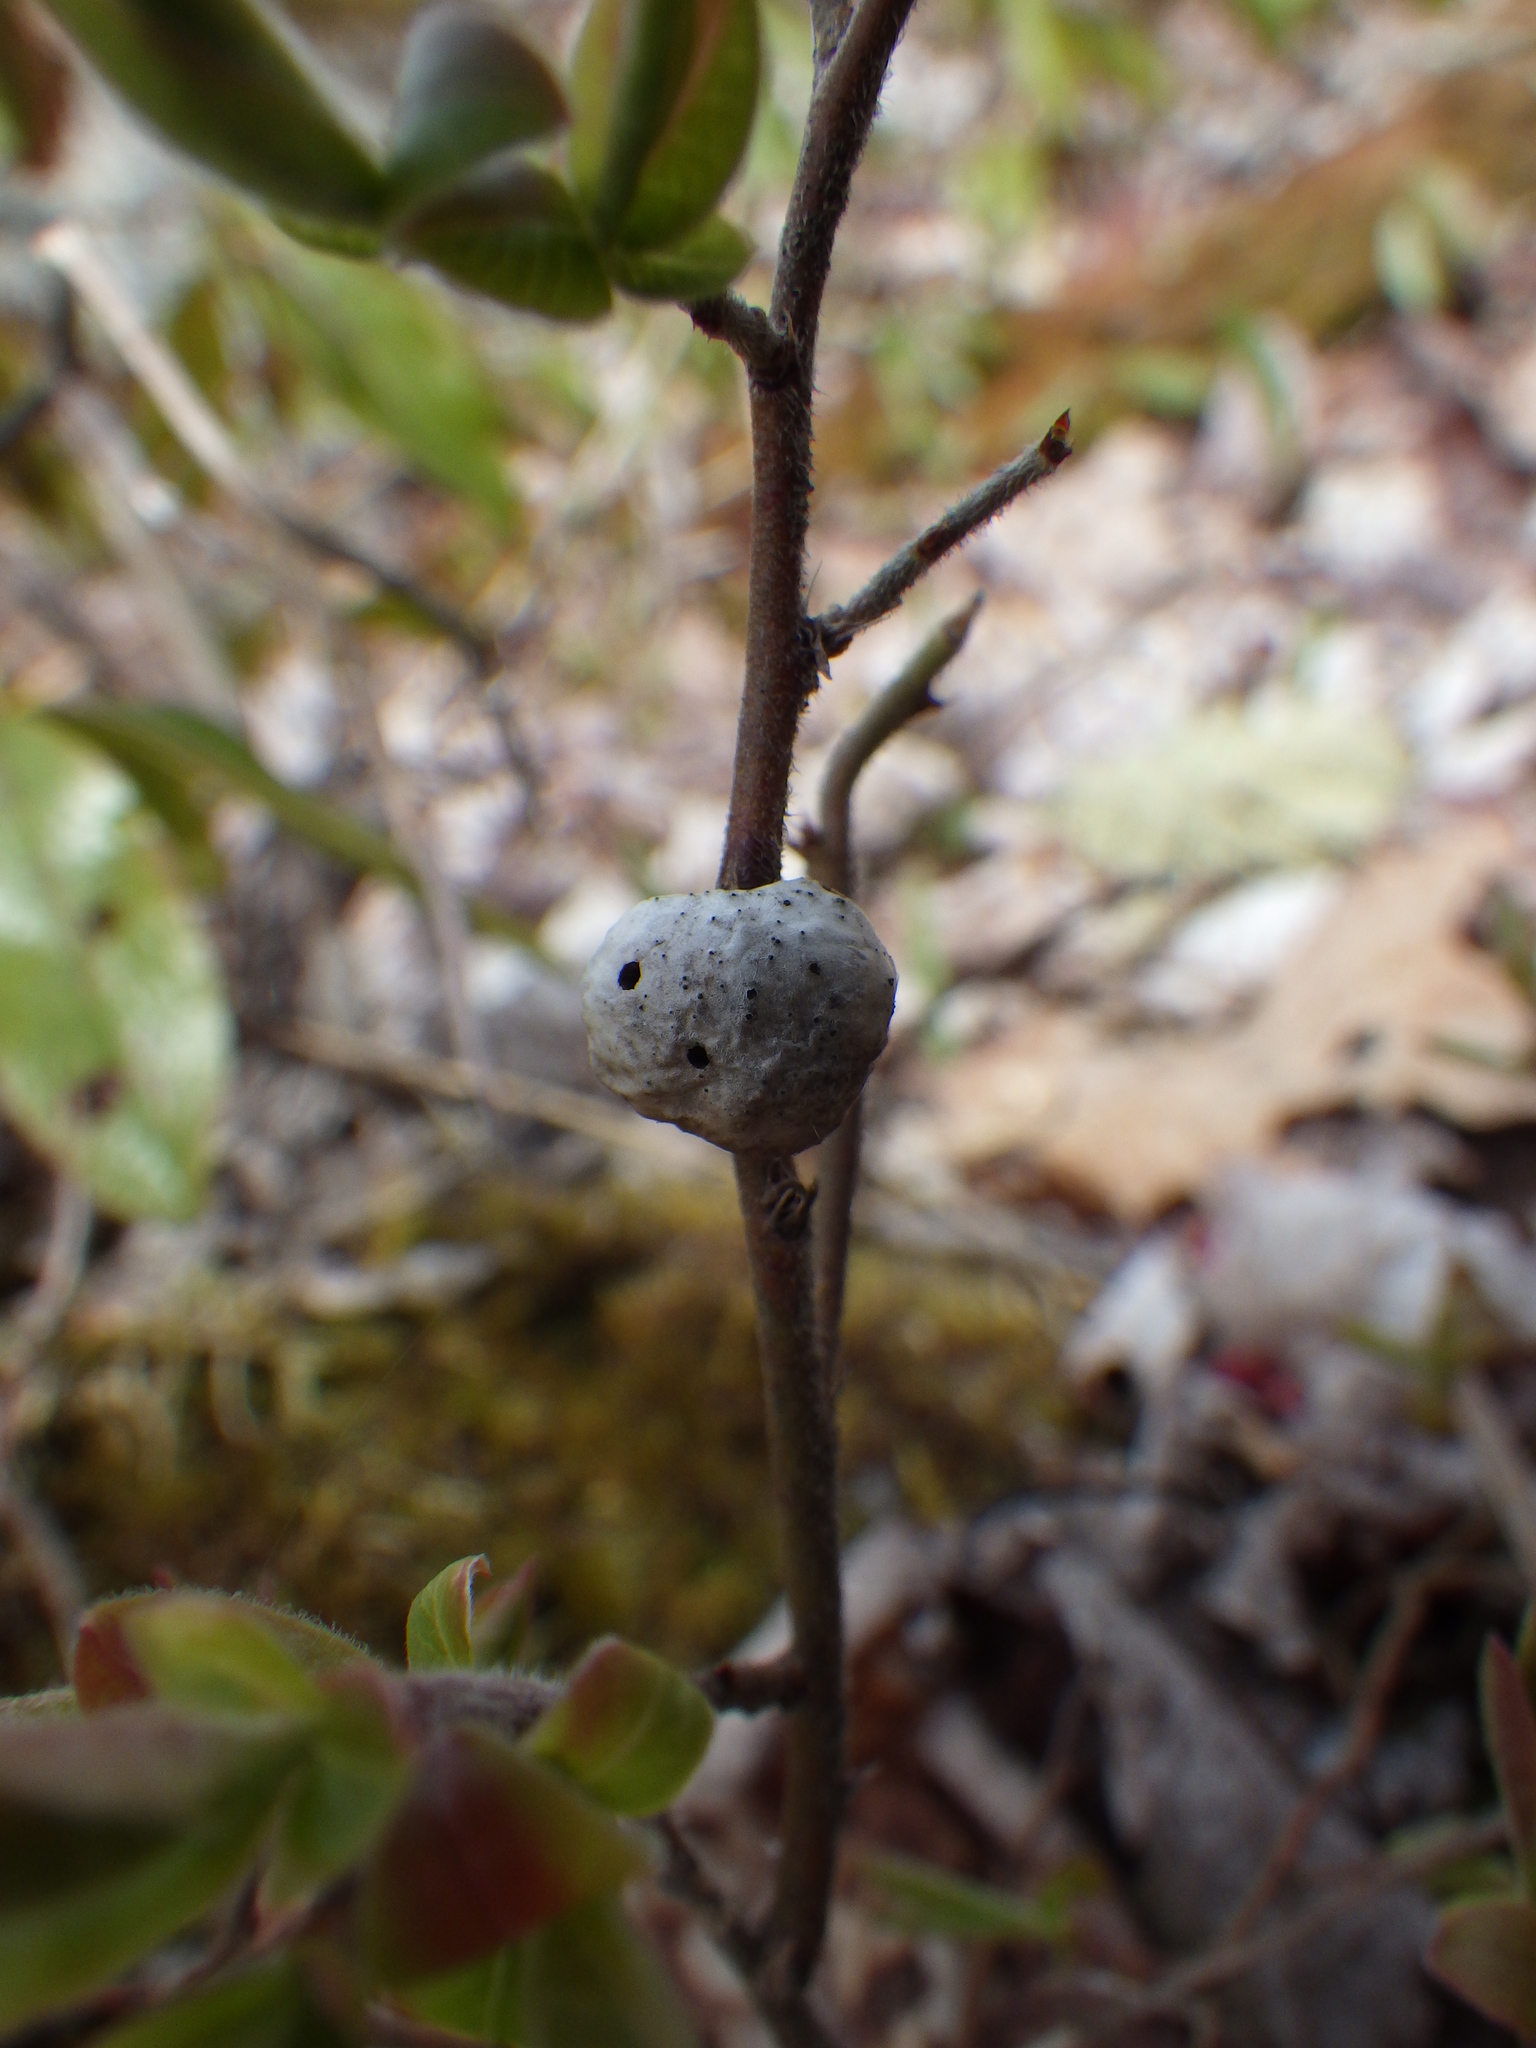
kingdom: Animalia
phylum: Arthropoda
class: Insecta
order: Hymenoptera
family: Pteromalidae
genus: Hemadas
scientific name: Hemadas nubilipennis
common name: Blueberry stem gall wasp
